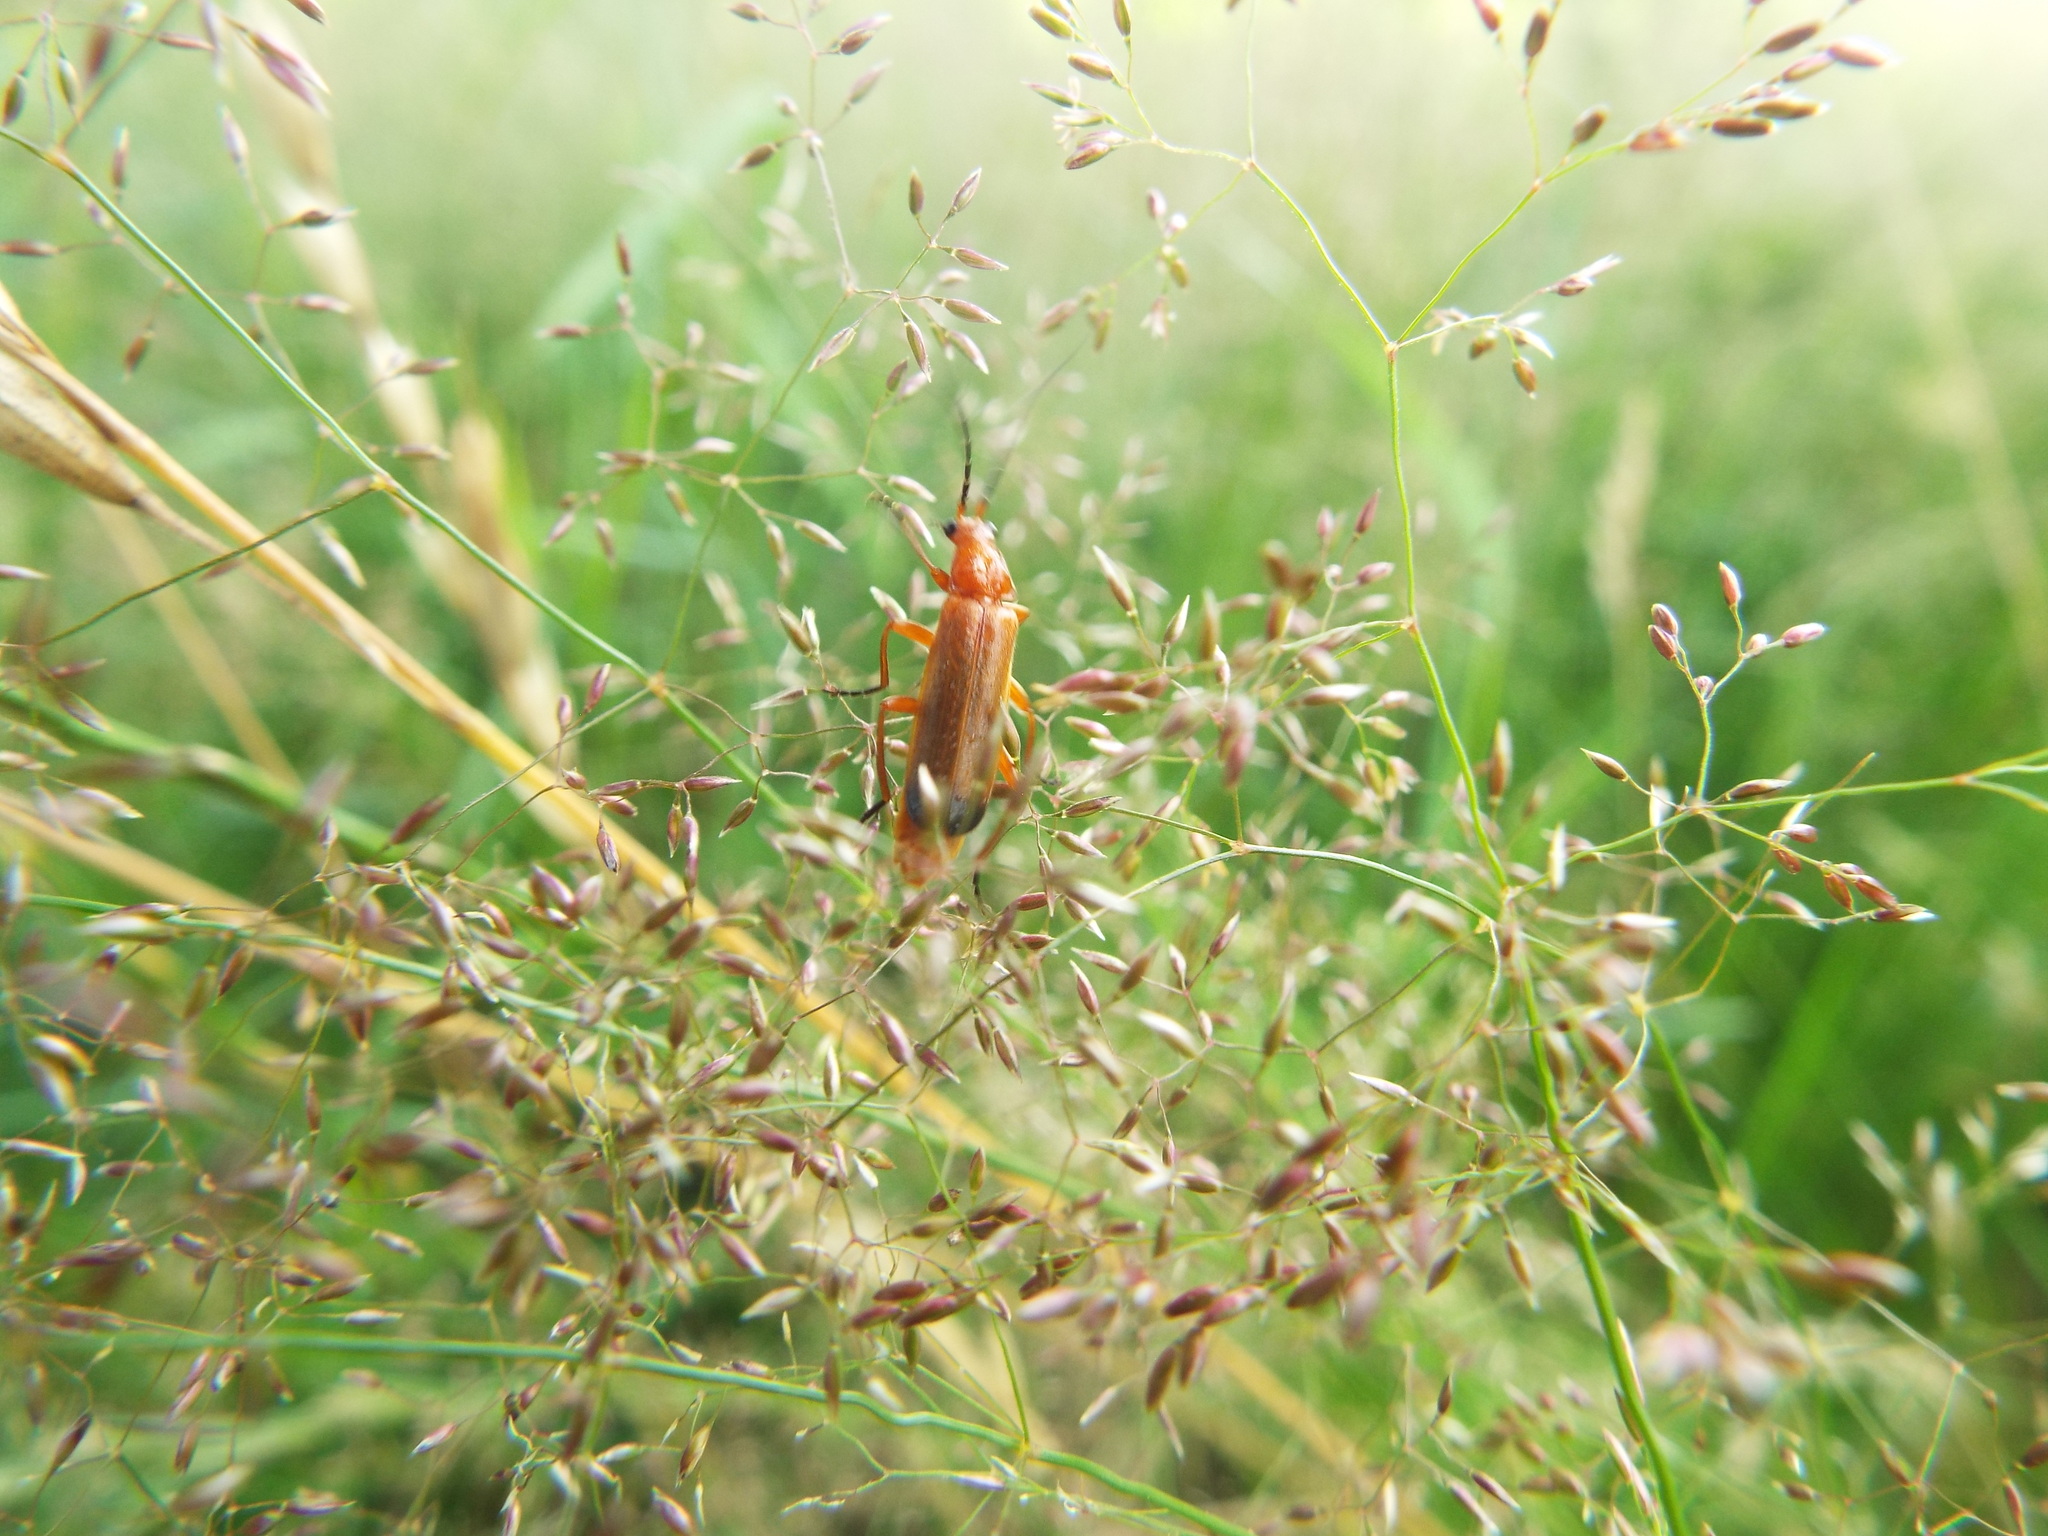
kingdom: Animalia
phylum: Arthropoda
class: Insecta
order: Coleoptera
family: Cantharidae
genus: Rhagonycha
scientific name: Rhagonycha fulva
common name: Common red soldier beetle
